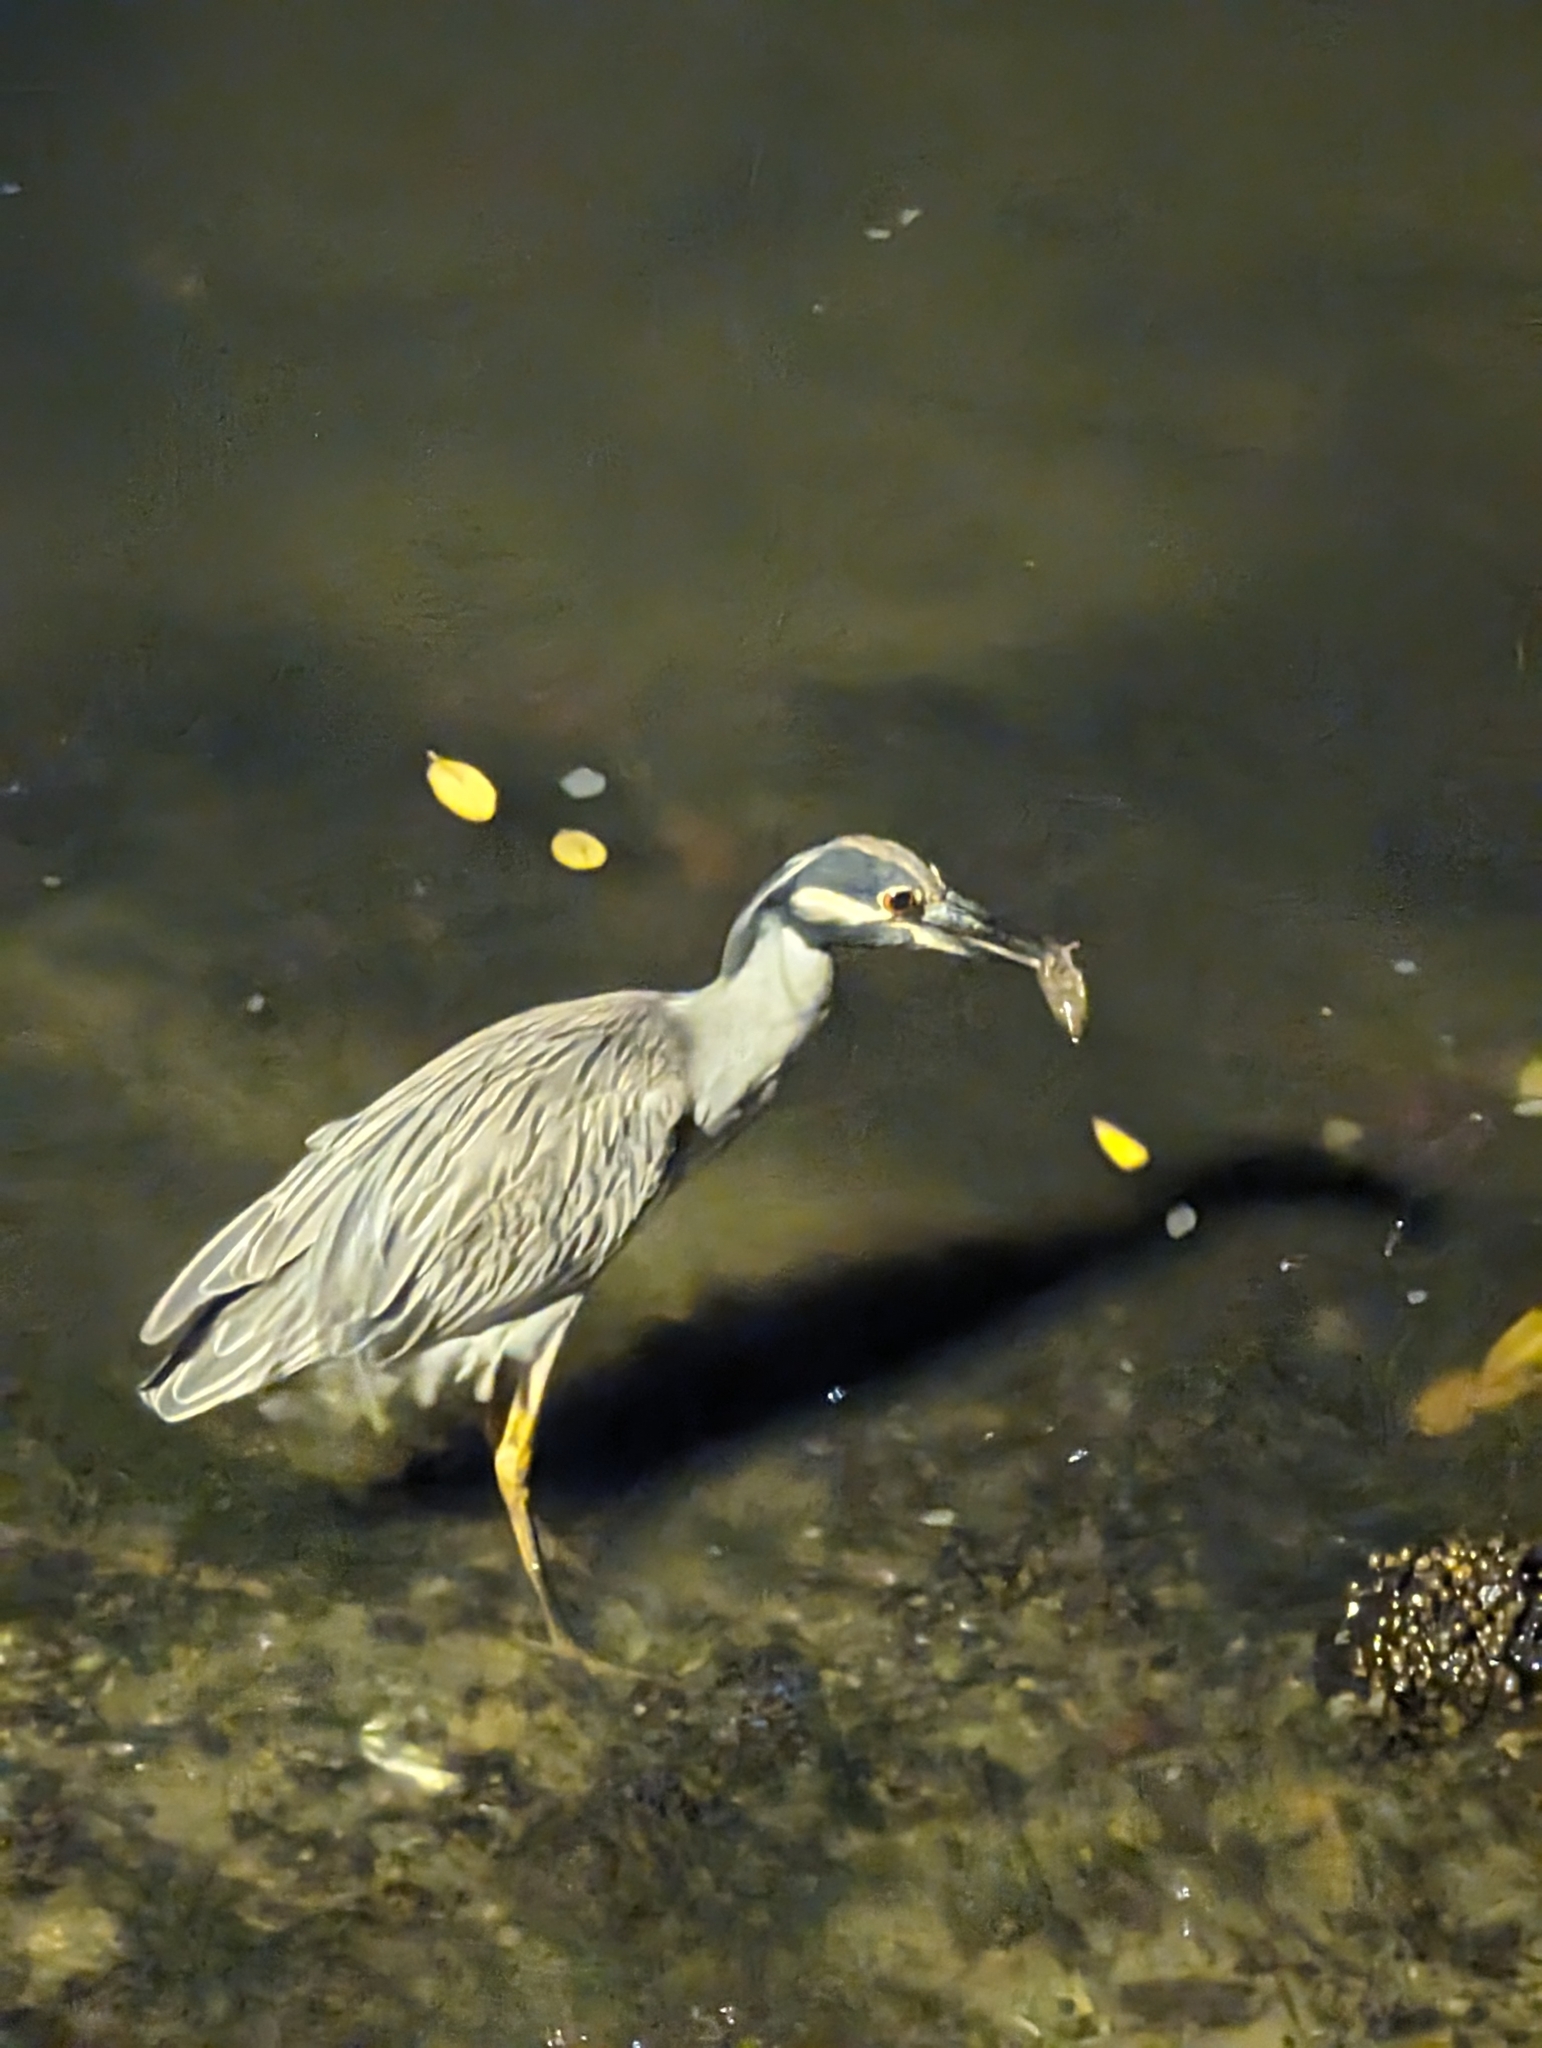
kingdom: Animalia
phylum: Chordata
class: Aves
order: Pelecaniformes
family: Ardeidae
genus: Nyctanassa
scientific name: Nyctanassa violacea
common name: Yellow-crowned night heron
